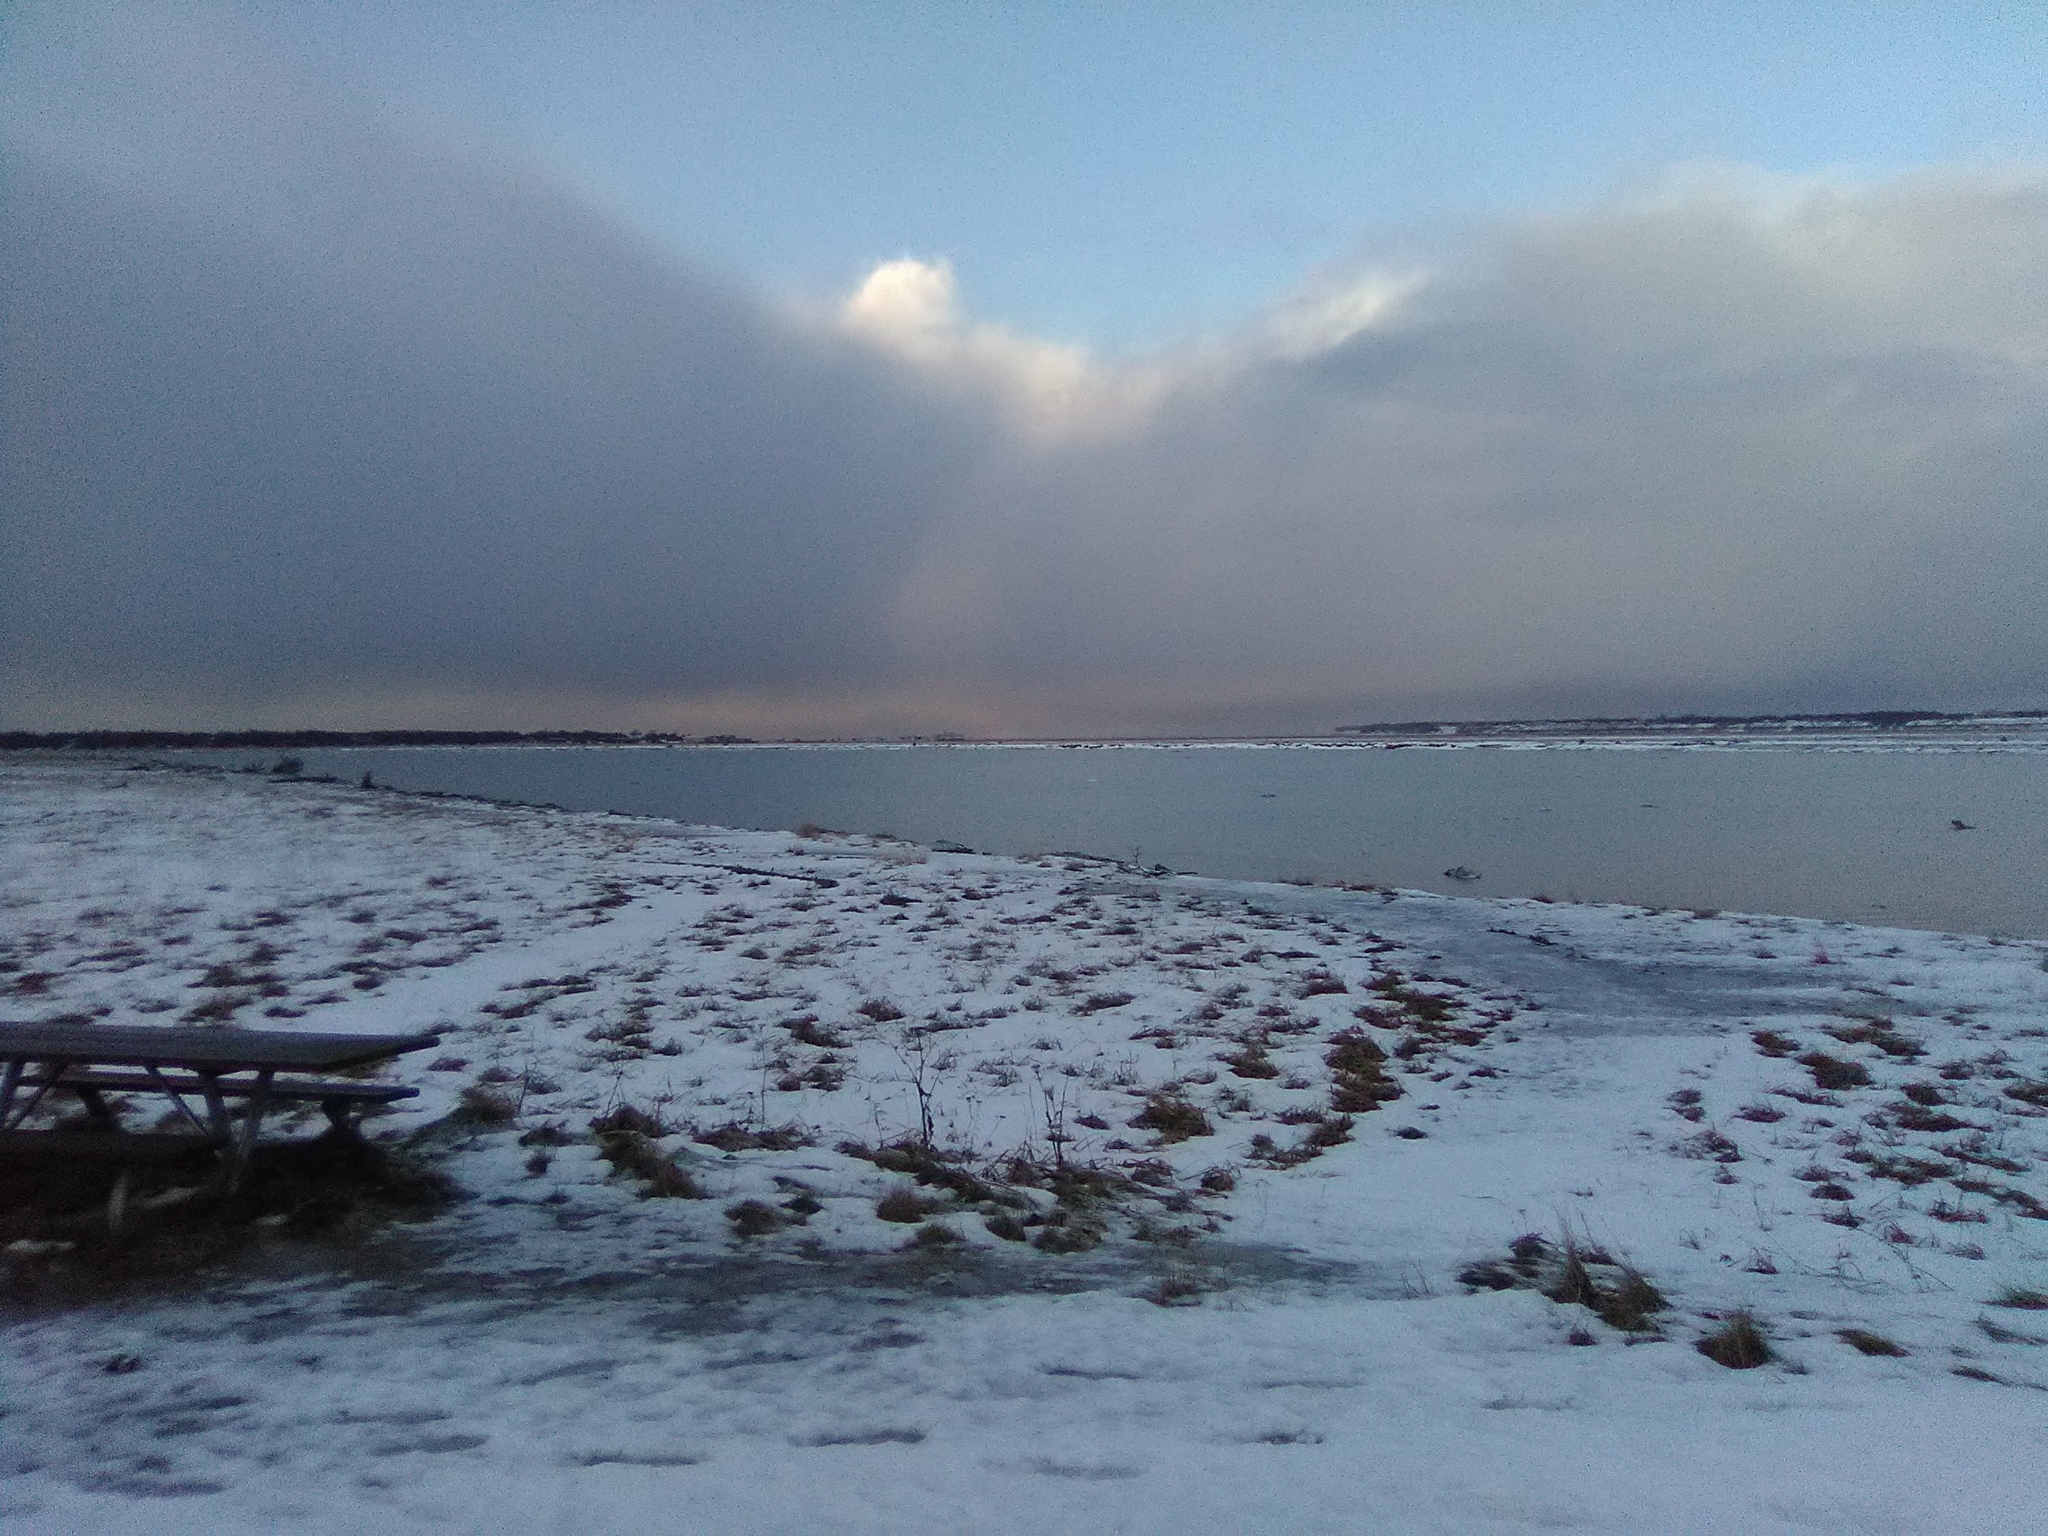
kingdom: Animalia
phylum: Chordata
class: Mammalia
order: Cetacea
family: Monodontidae
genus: Delphinapterus
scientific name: Delphinapterus leucas
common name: Beluga
